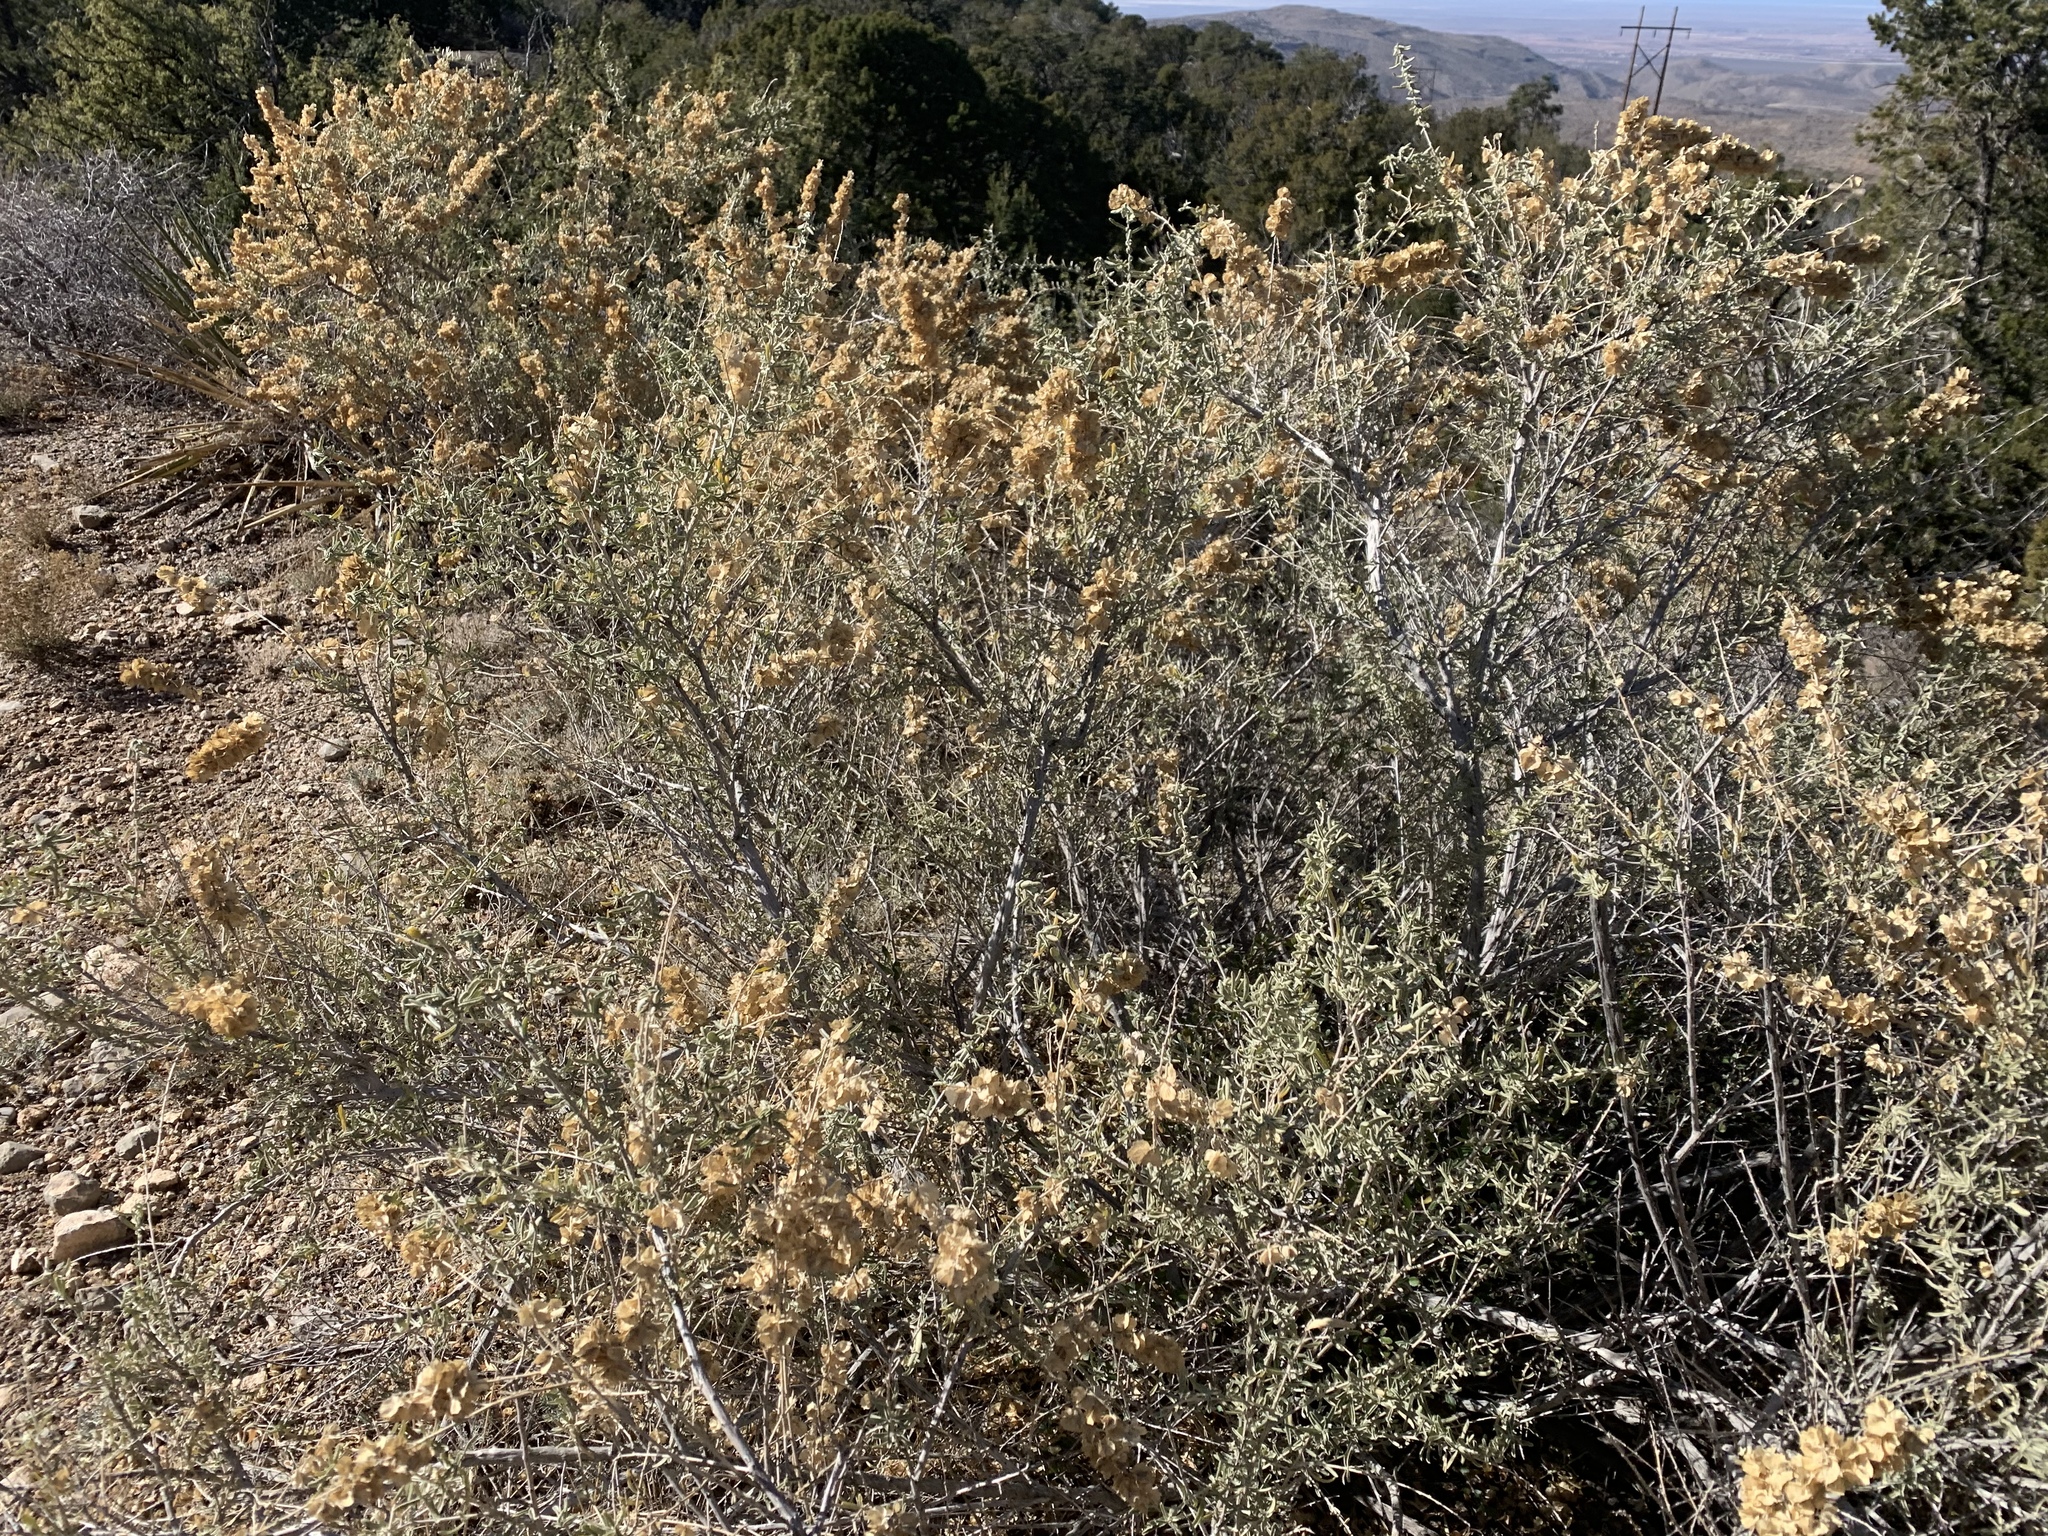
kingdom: Plantae
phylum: Tracheophyta
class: Magnoliopsida
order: Caryophyllales
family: Amaranthaceae
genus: Atriplex
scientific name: Atriplex canescens
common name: Four-wing saltbush
